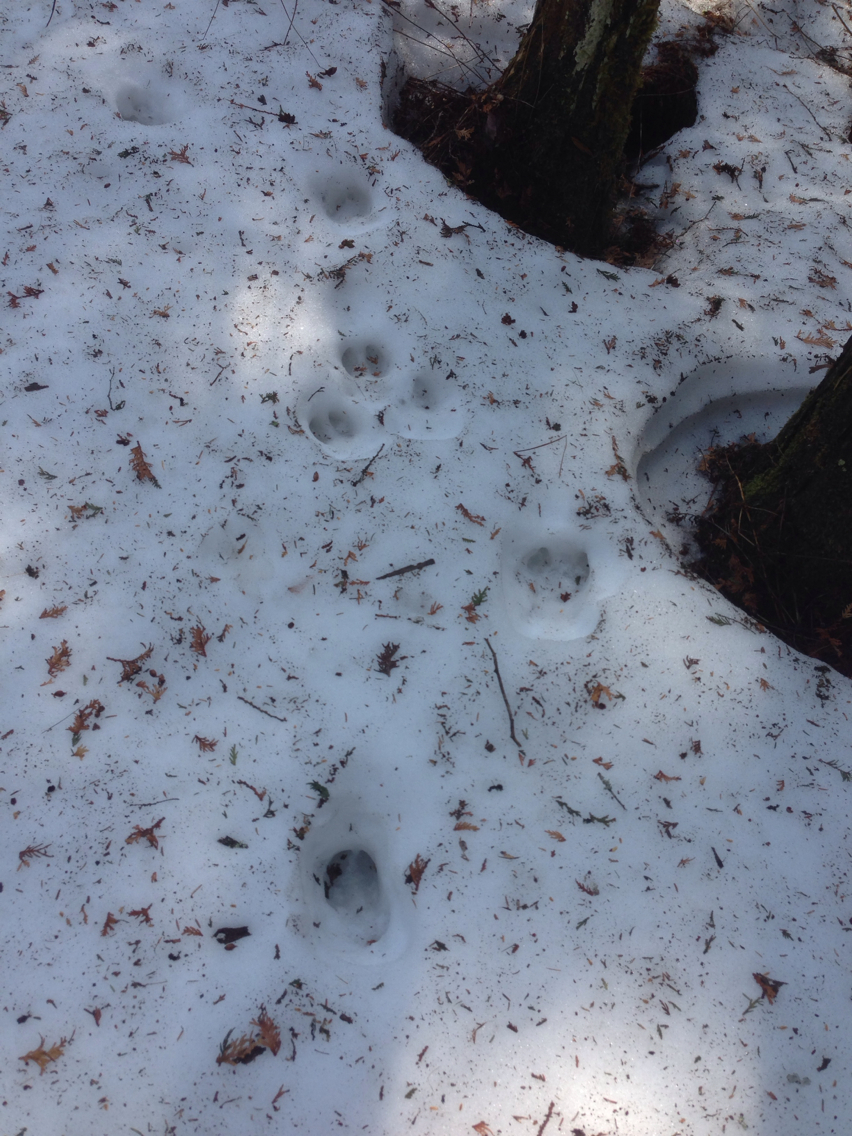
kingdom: Animalia
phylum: Chordata
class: Mammalia
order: Artiodactyla
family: Cervidae
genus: Odocoileus
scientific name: Odocoileus virginianus
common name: White-tailed deer
